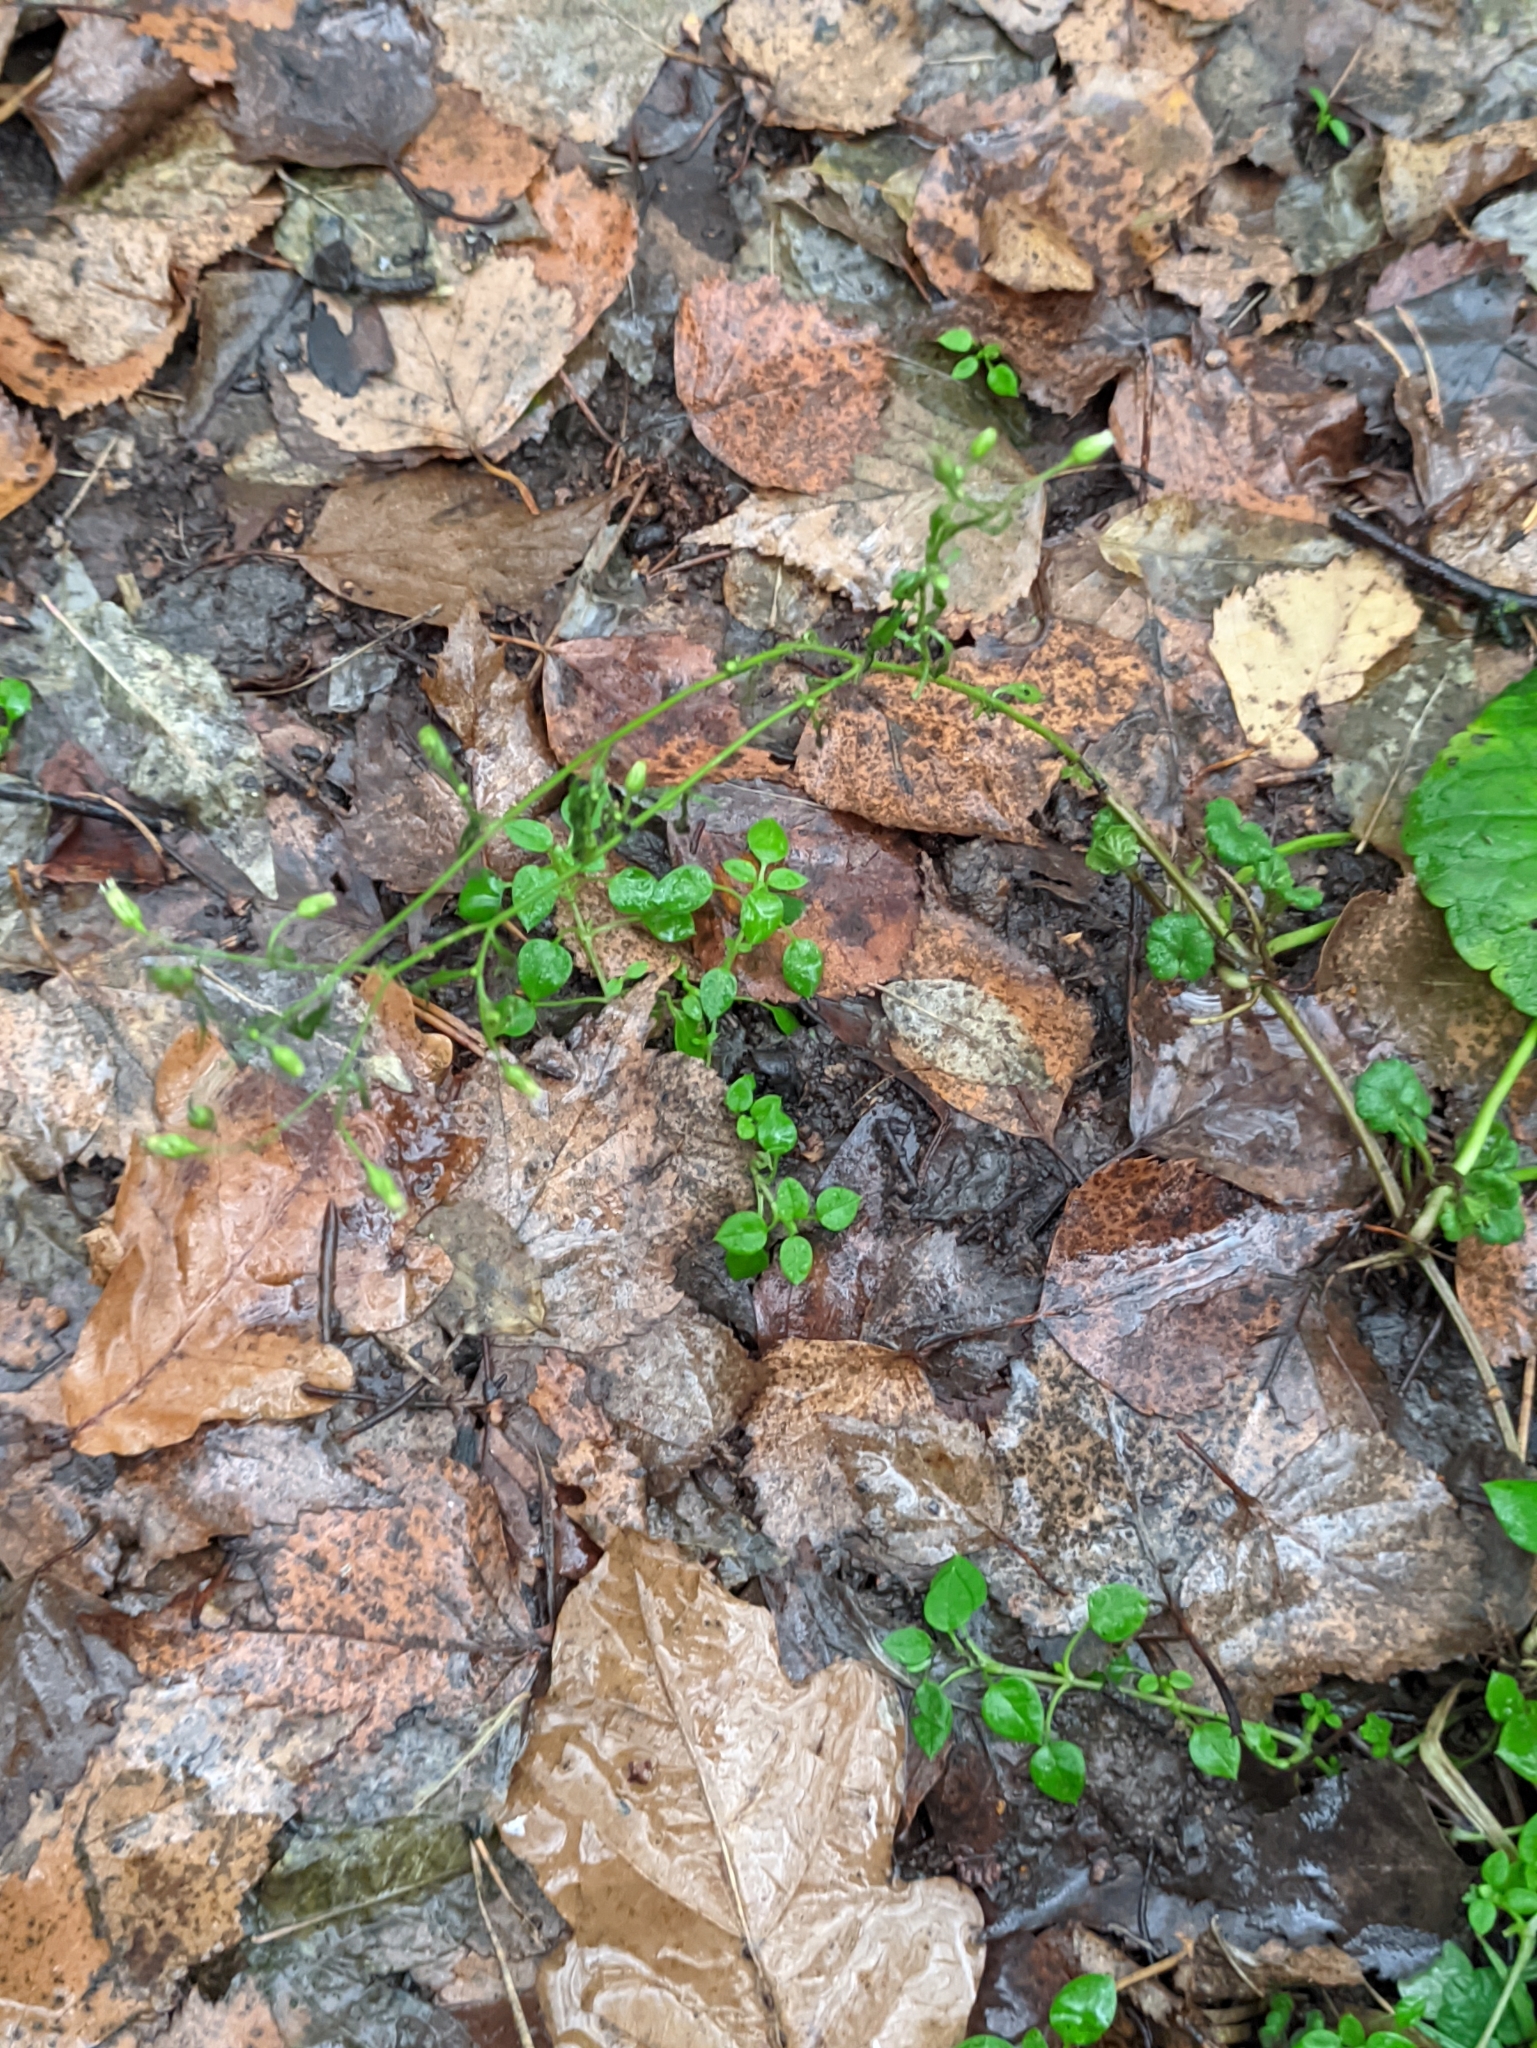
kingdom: Plantae
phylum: Tracheophyta
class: Magnoliopsida
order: Caryophyllales
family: Caryophyllaceae
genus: Cerastium
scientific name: Cerastium holosteoides
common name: Big chickweed
